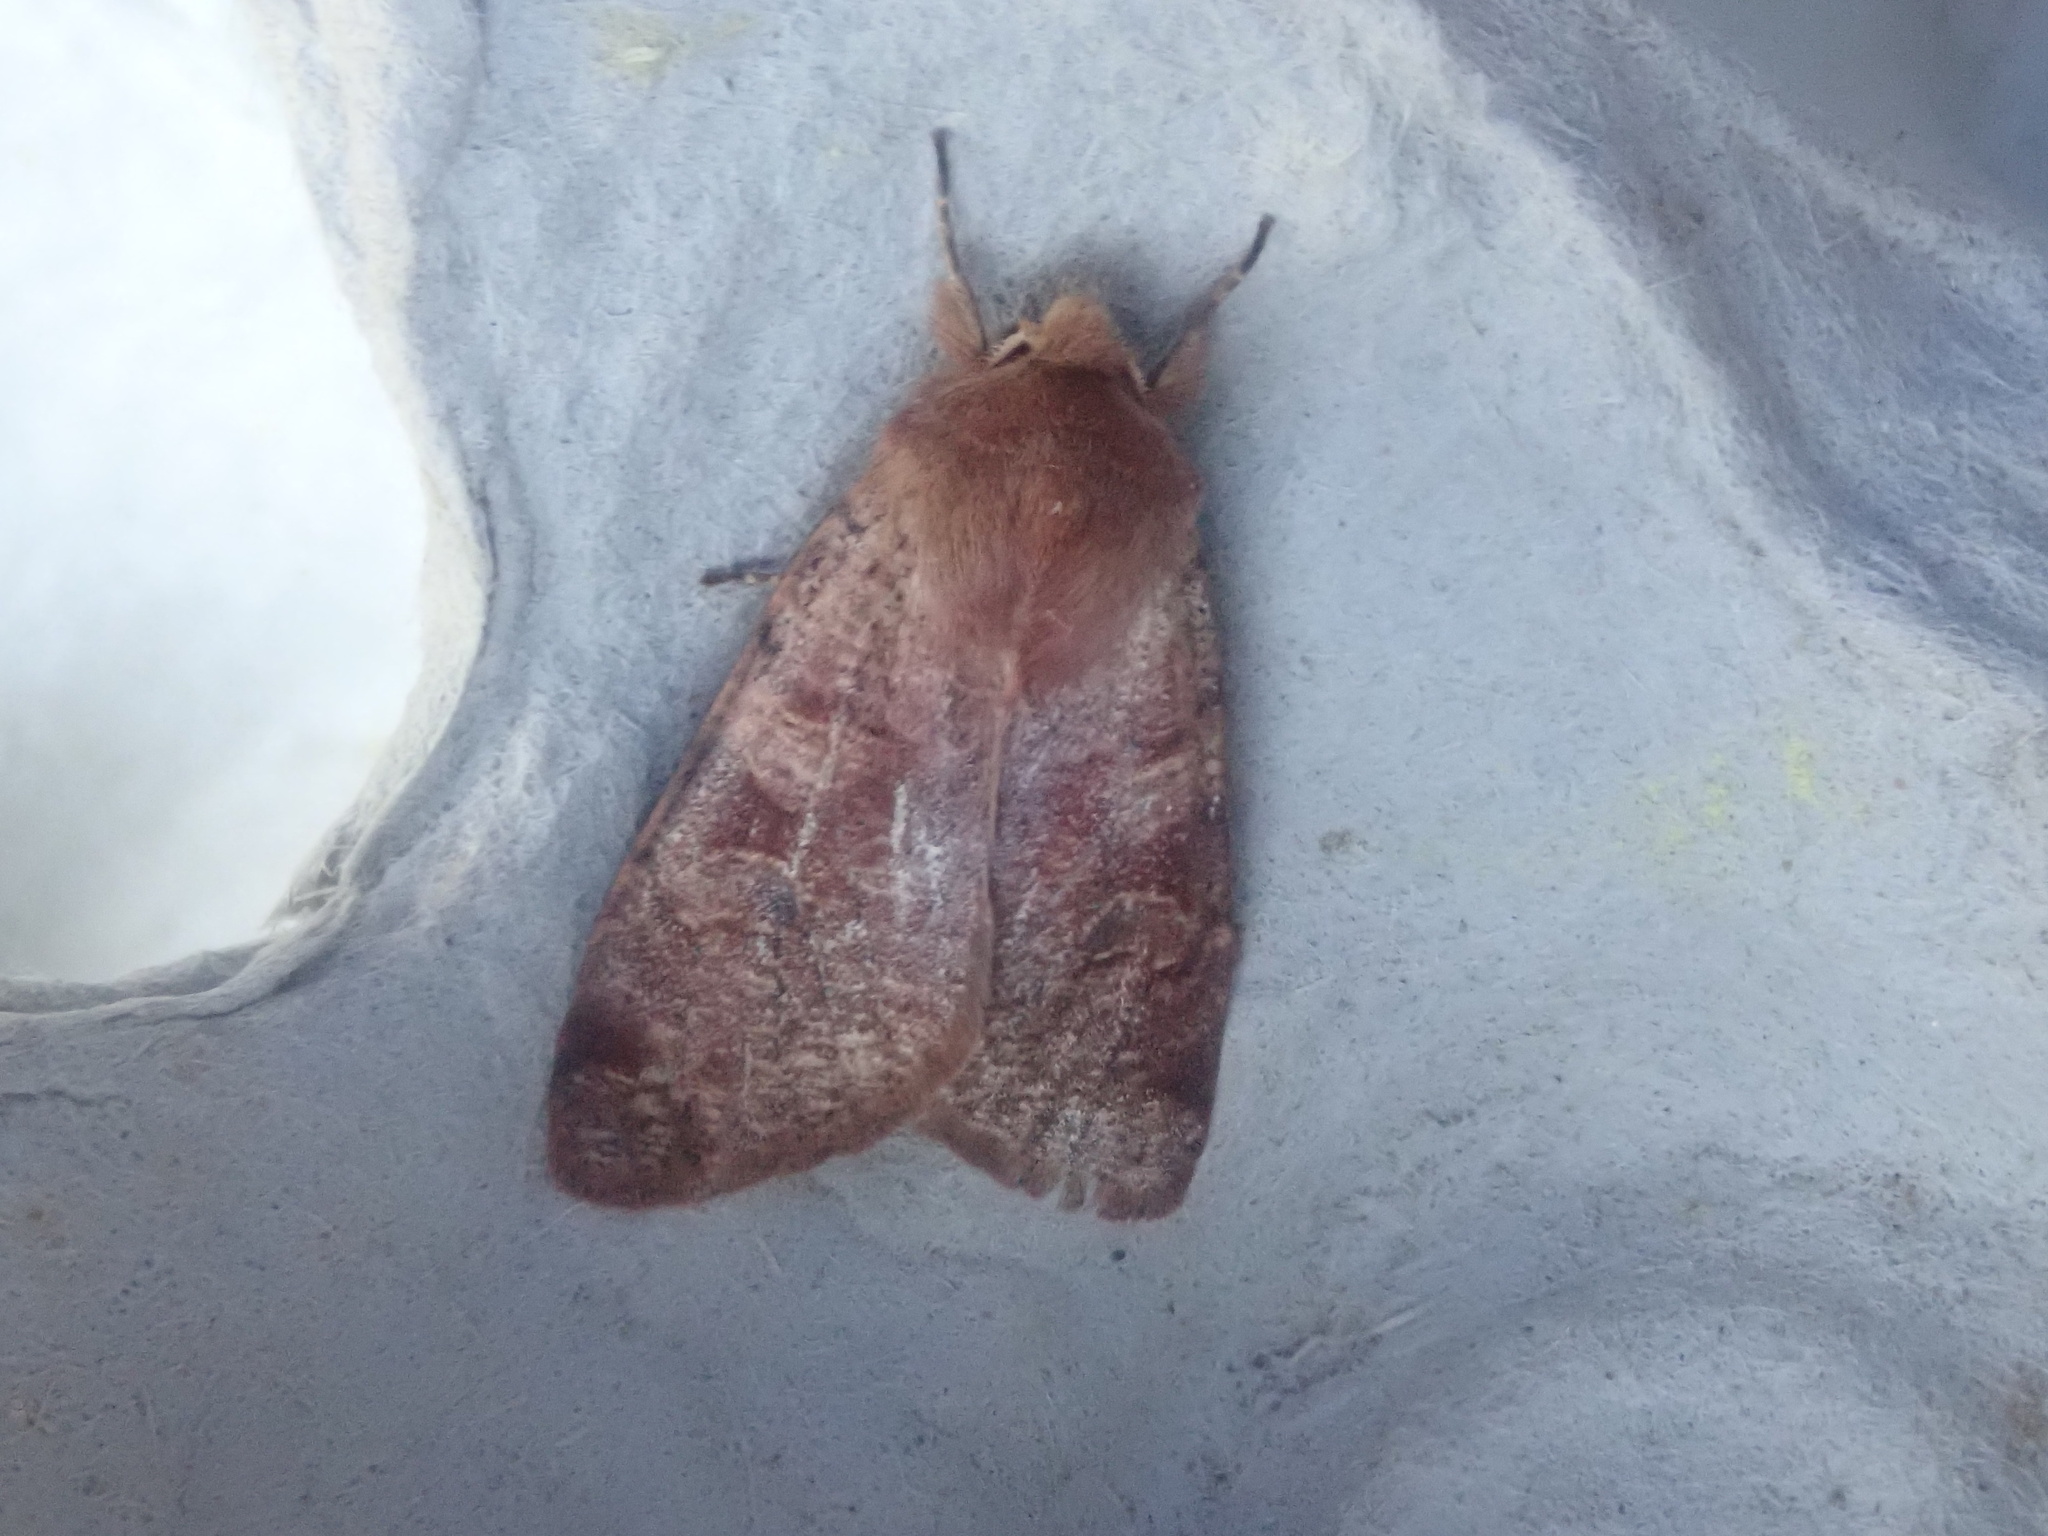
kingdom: Animalia
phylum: Arthropoda
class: Insecta
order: Lepidoptera
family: Noctuidae
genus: Orthosia
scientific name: Orthosia rubescens
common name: Ruby quaker
